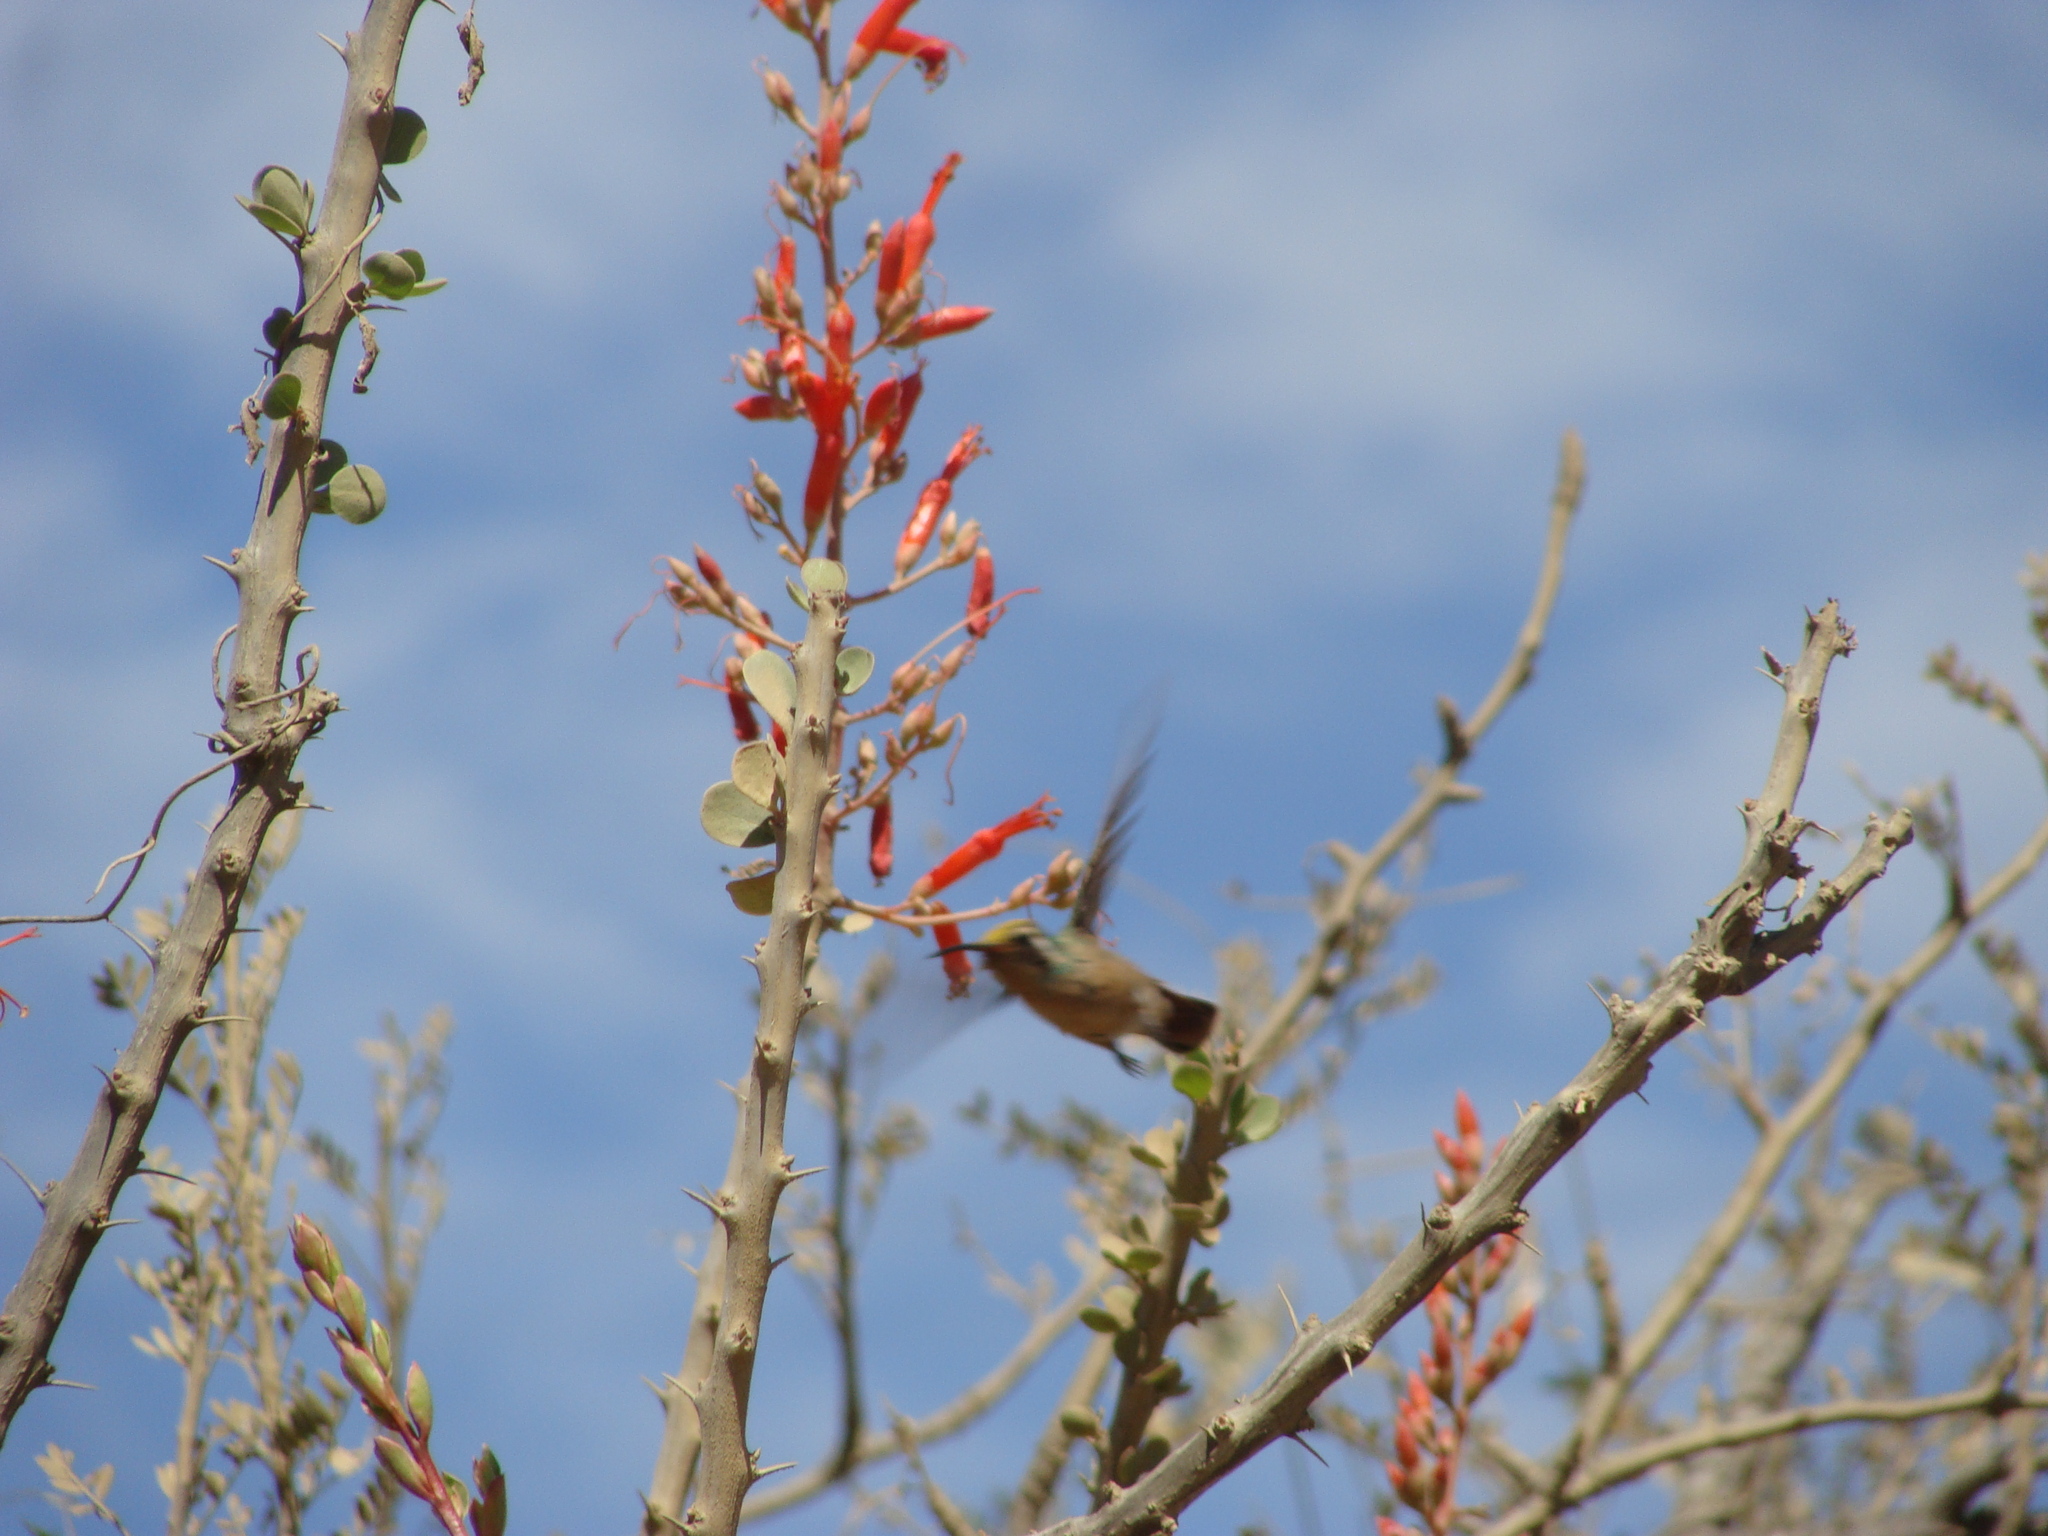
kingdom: Plantae
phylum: Tracheophyta
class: Magnoliopsida
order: Ericales
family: Fouquieriaceae
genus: Fouquieria
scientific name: Fouquieria diguetii
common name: Adam's tree
